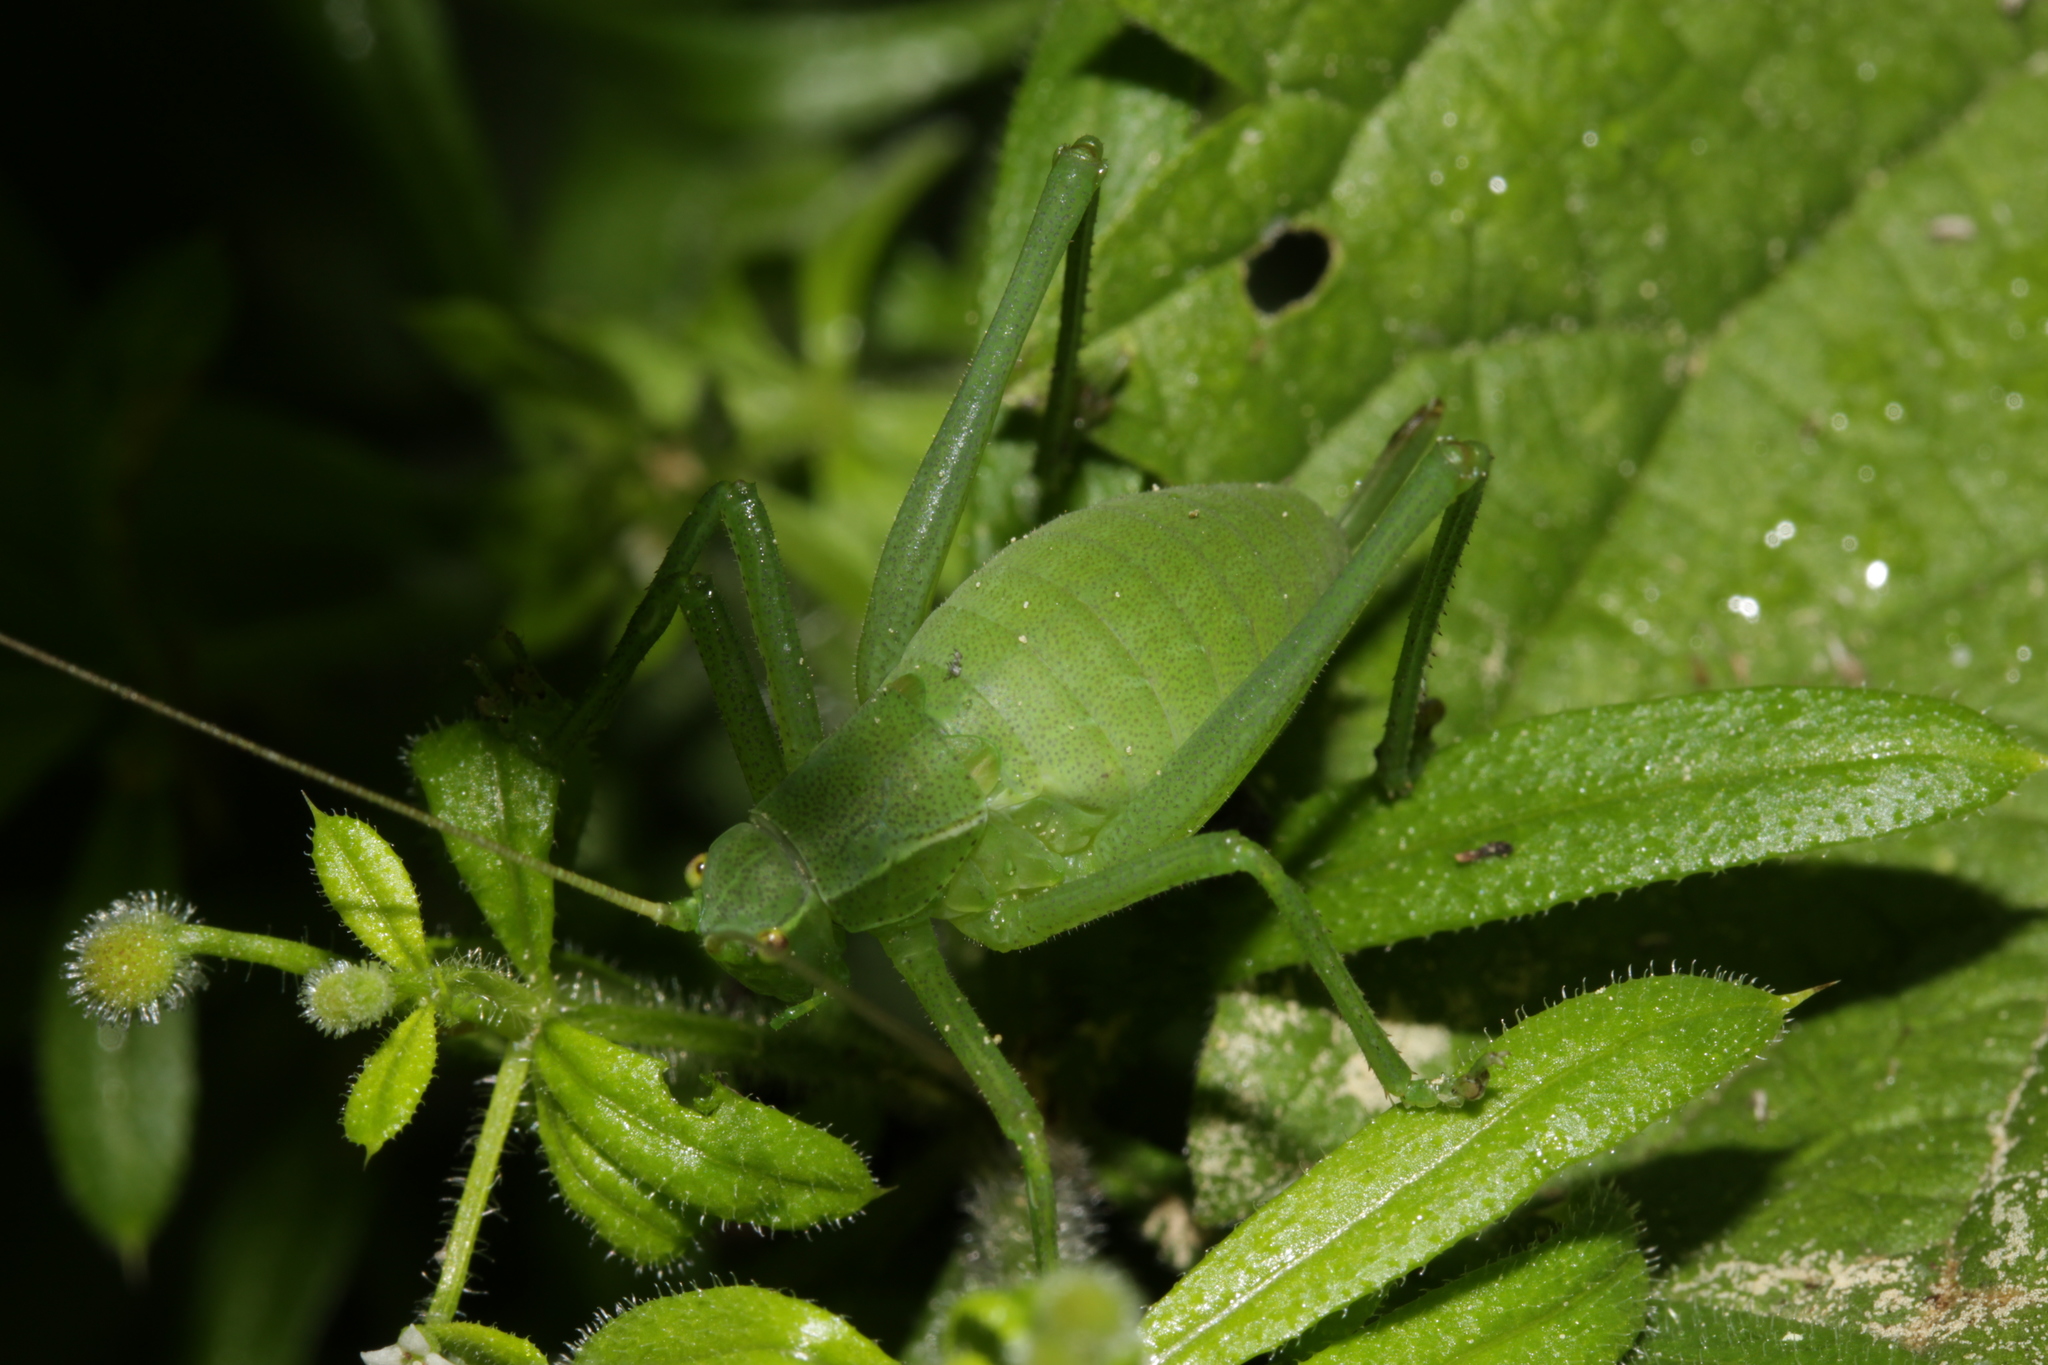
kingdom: Animalia
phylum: Arthropoda
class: Insecta
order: Orthoptera
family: Tettigoniidae
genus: Isophya
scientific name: Isophya camptoxypha
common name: Curve-tailed plump bush-cricket
